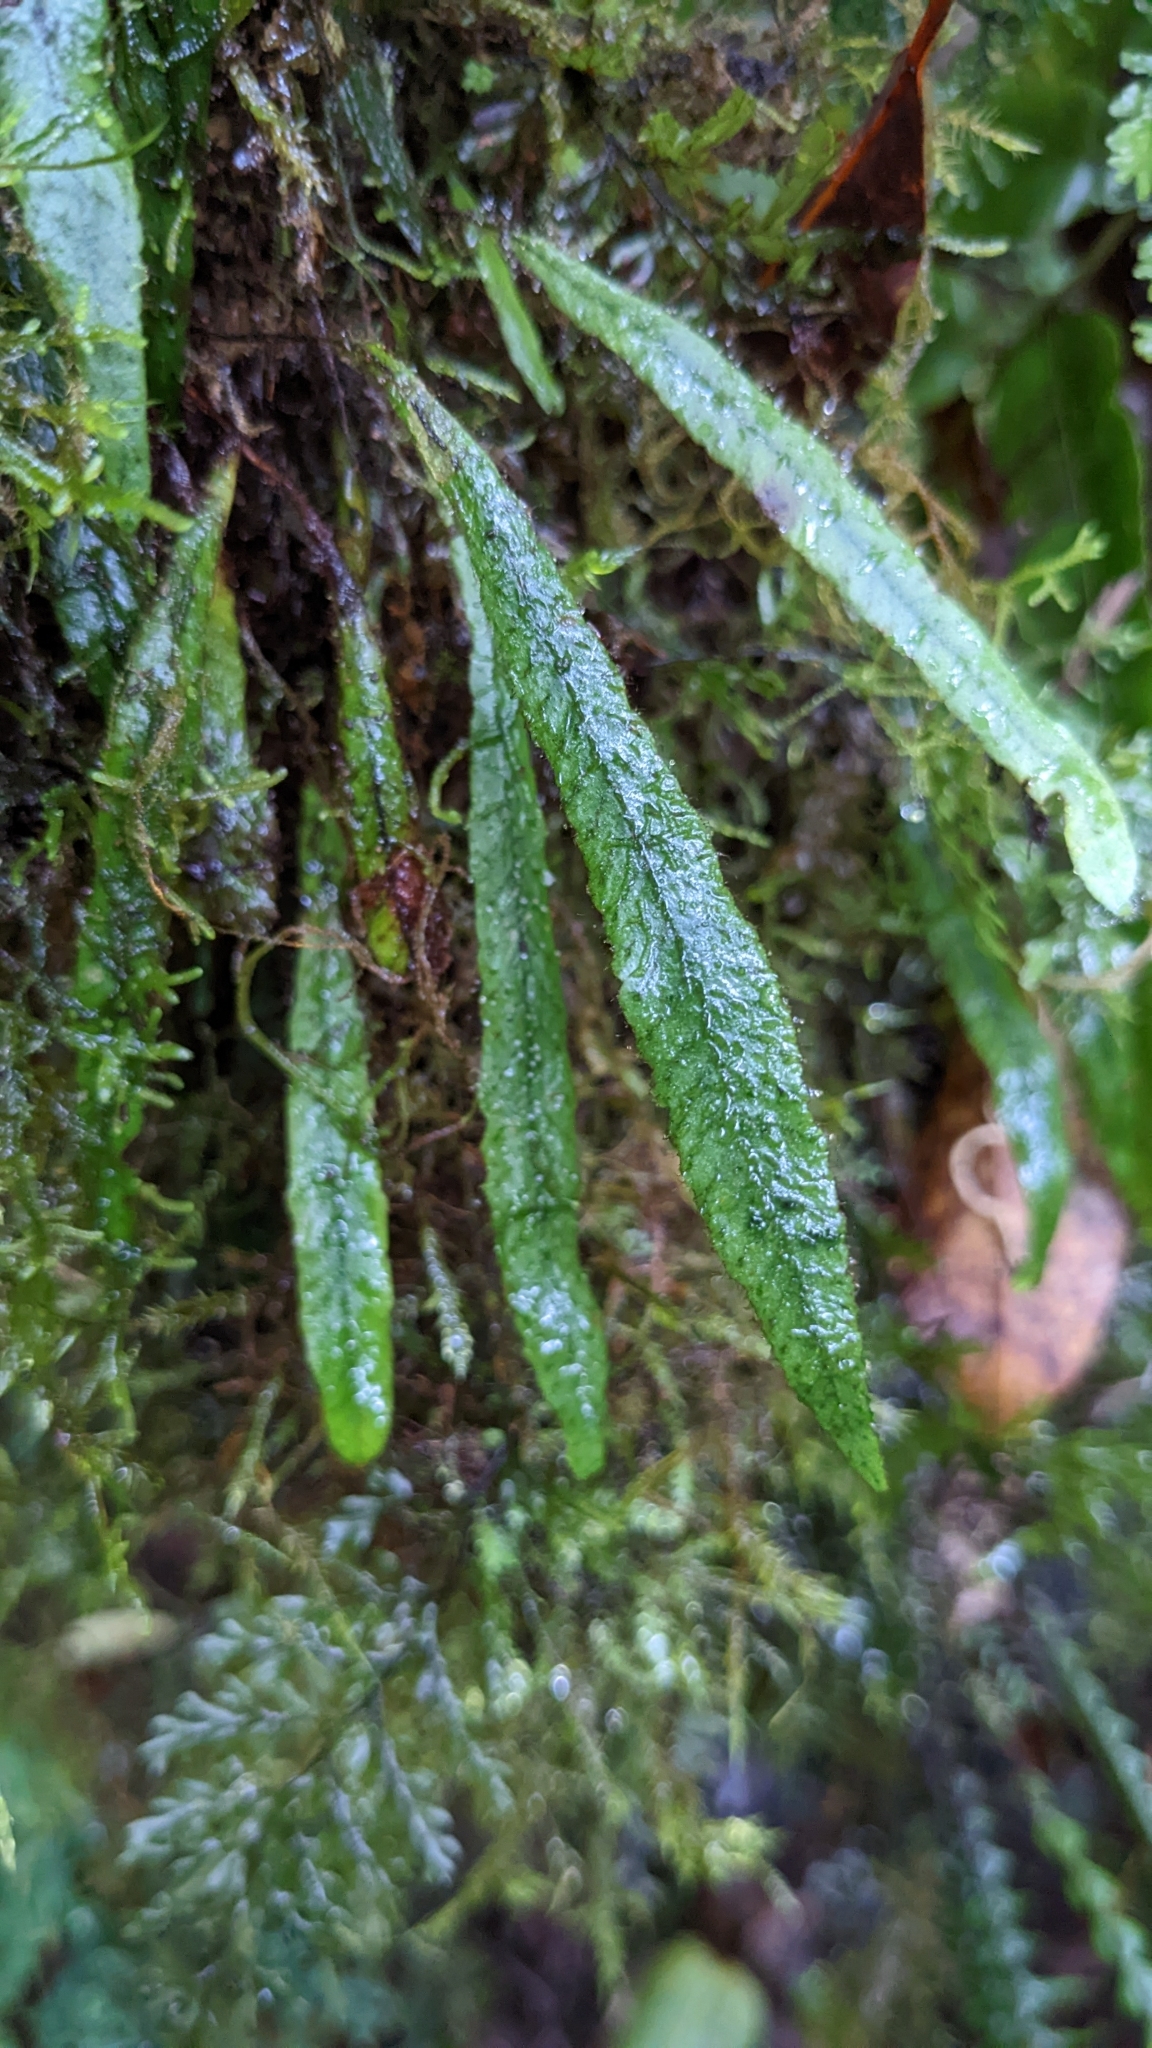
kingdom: Plantae
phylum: Tracheophyta
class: Polypodiopsida
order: Polypodiales
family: Polypodiaceae
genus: Oreogrammitis
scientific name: Oreogrammitis reinwardtii
